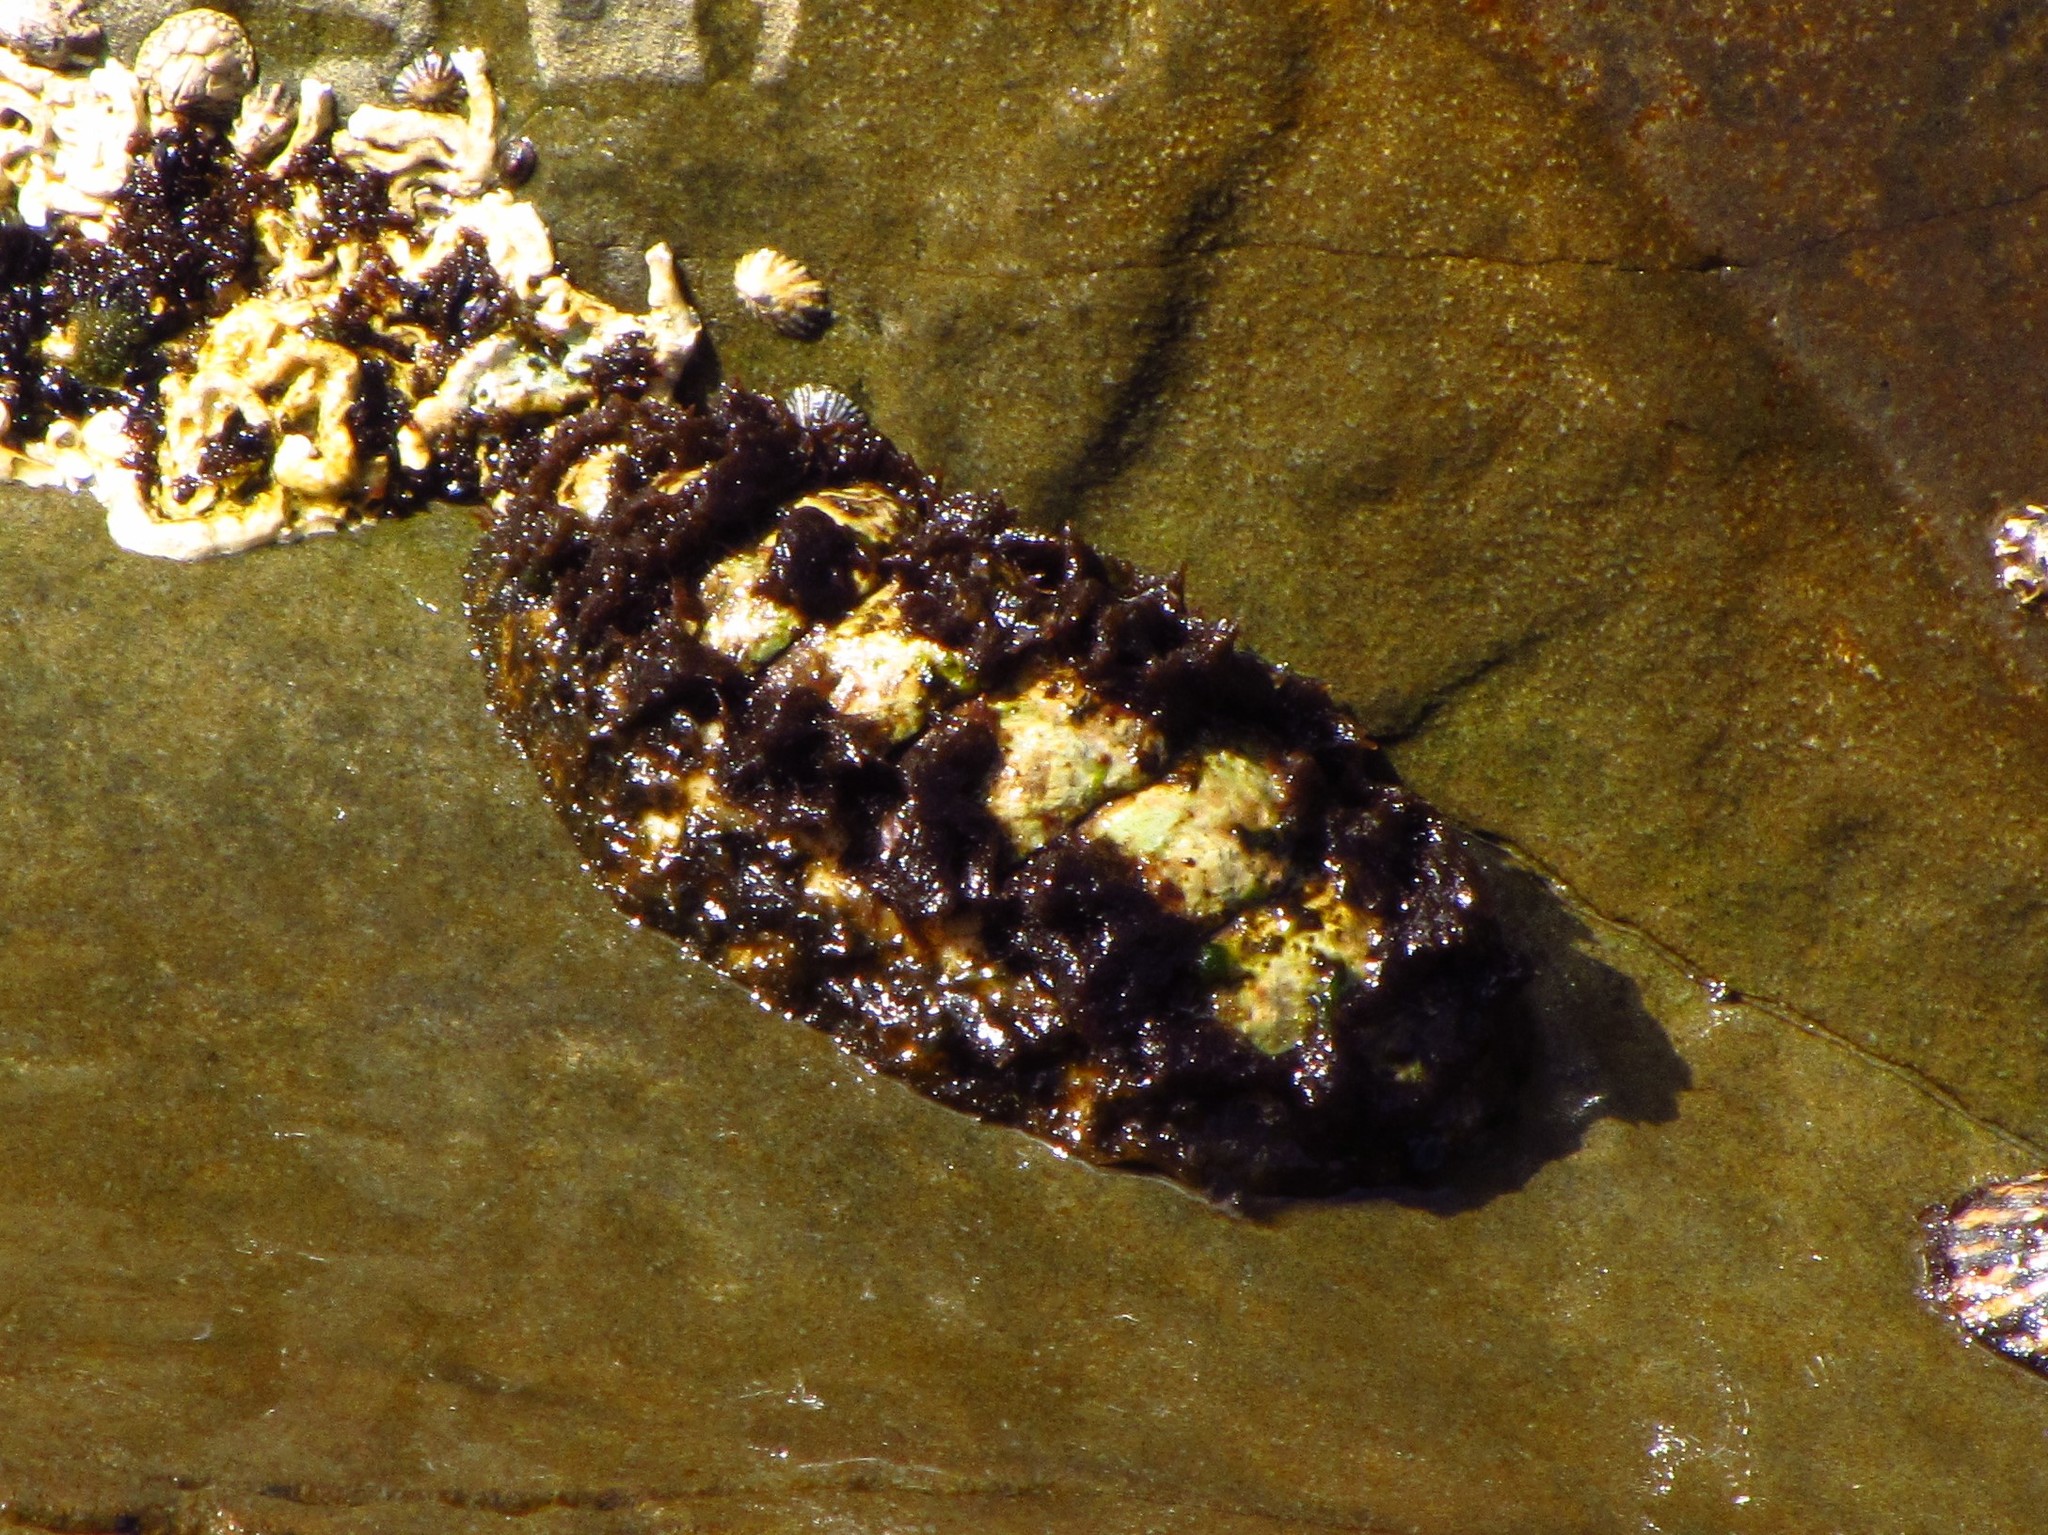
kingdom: Animalia
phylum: Mollusca
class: Polyplacophora
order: Chitonida
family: Mopaliidae
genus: Plaxiphora
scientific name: Plaxiphora albida
